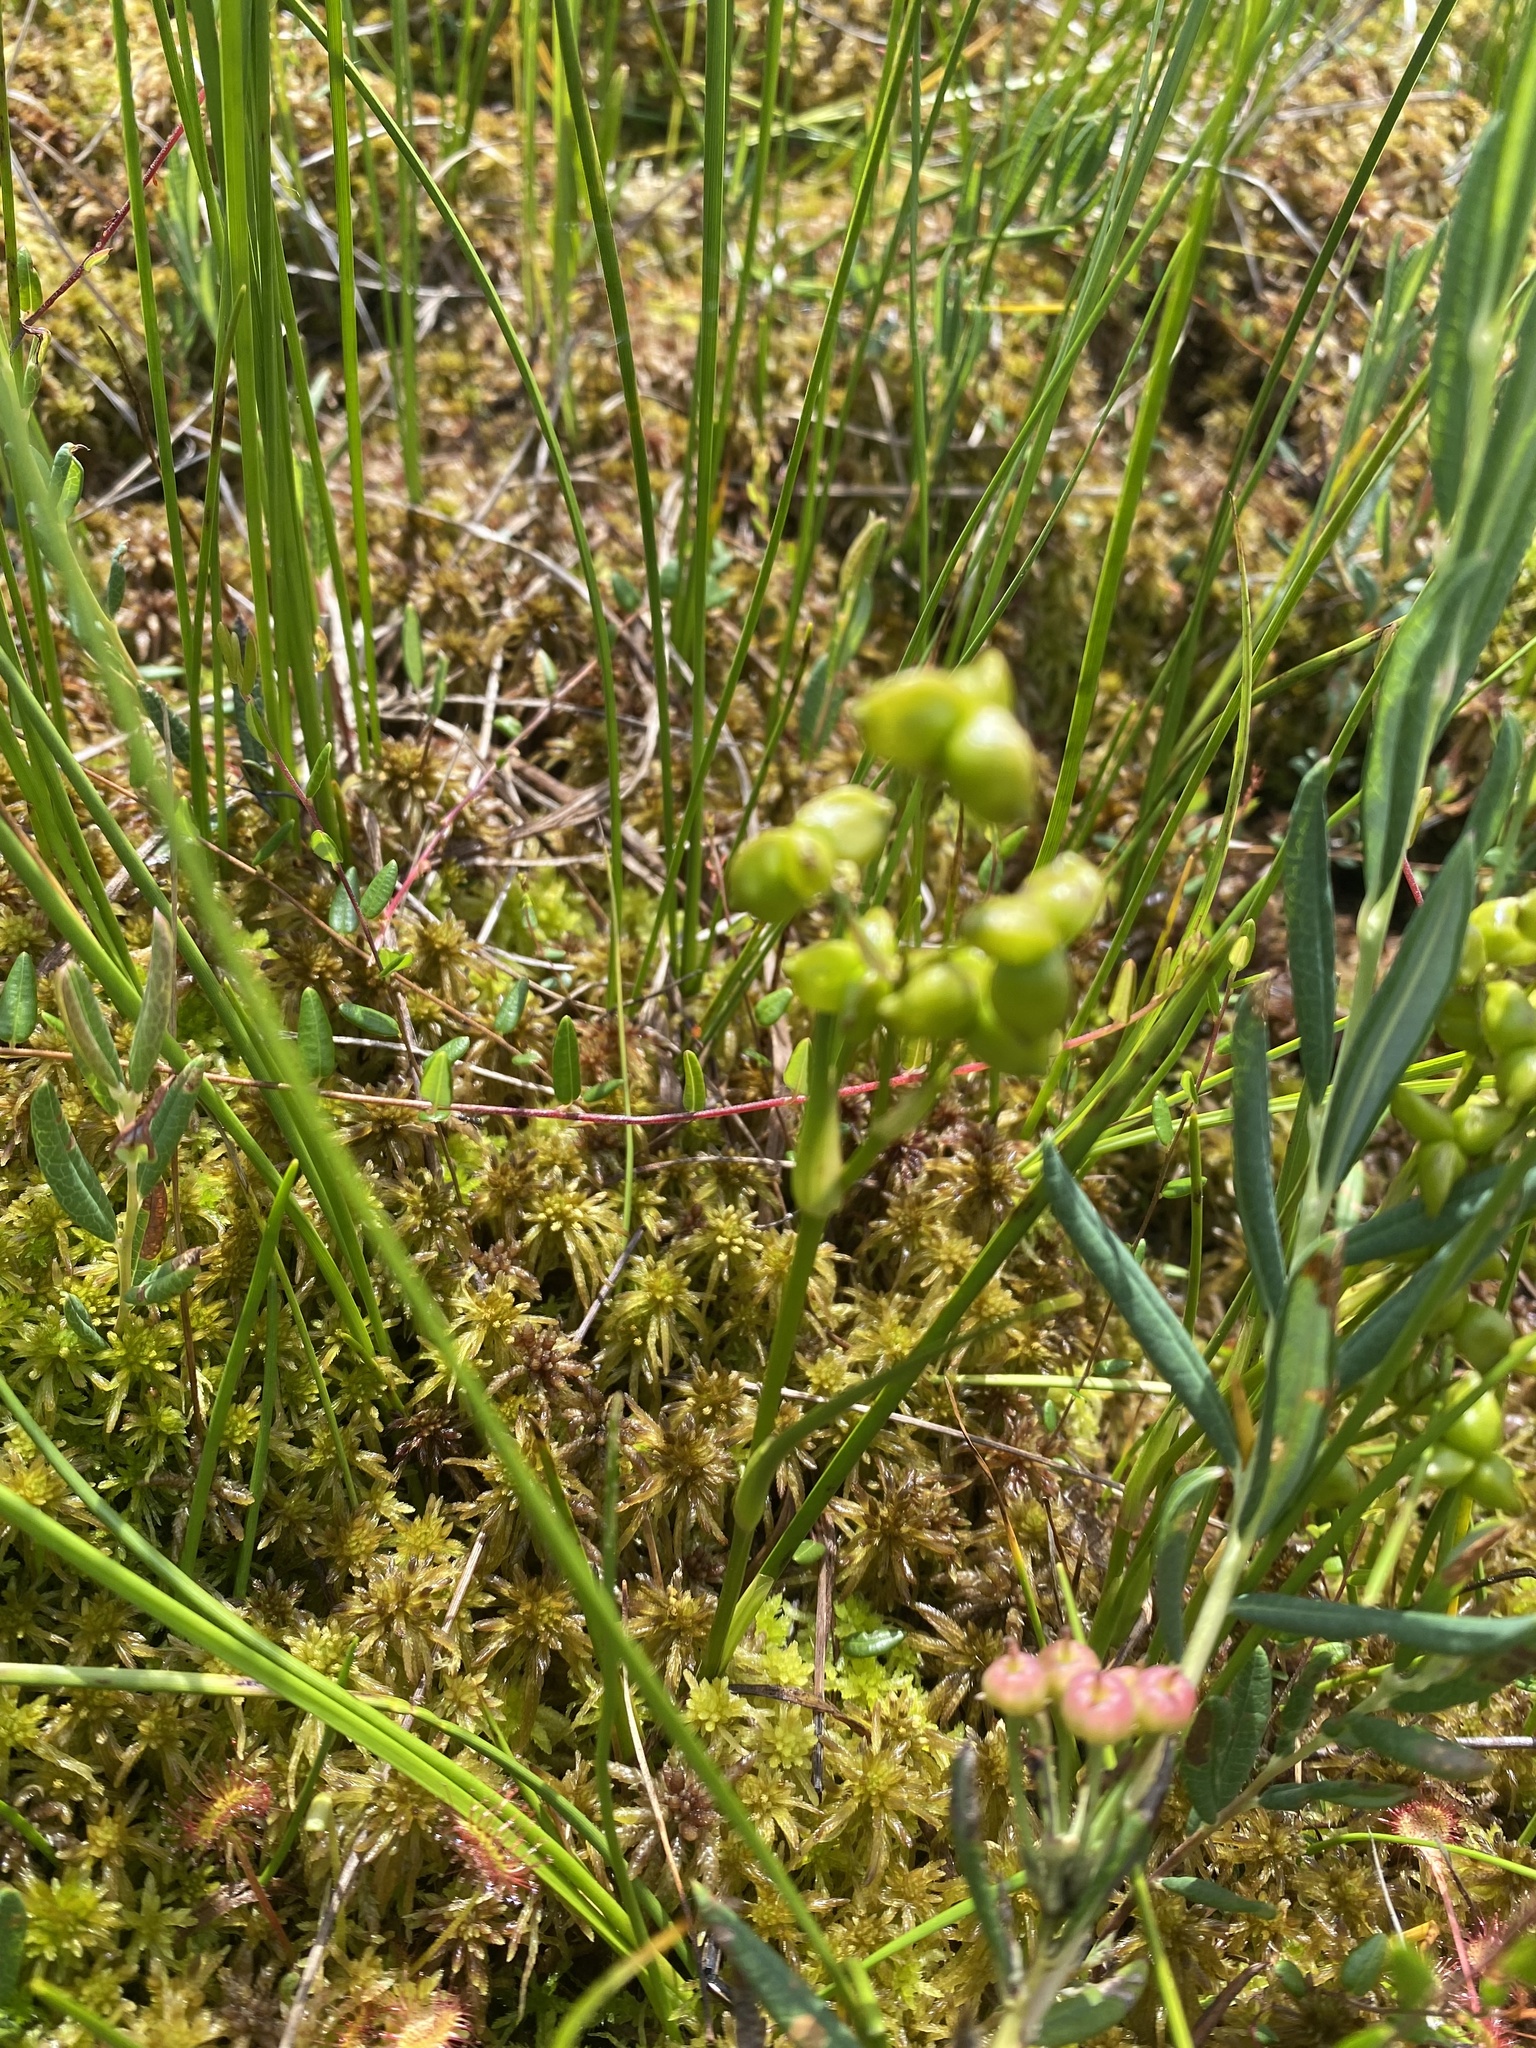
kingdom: Plantae
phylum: Tracheophyta
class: Liliopsida
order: Alismatales
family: Scheuchzeriaceae
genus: Scheuchzeria
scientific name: Scheuchzeria palustris
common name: Rannoch-rush
